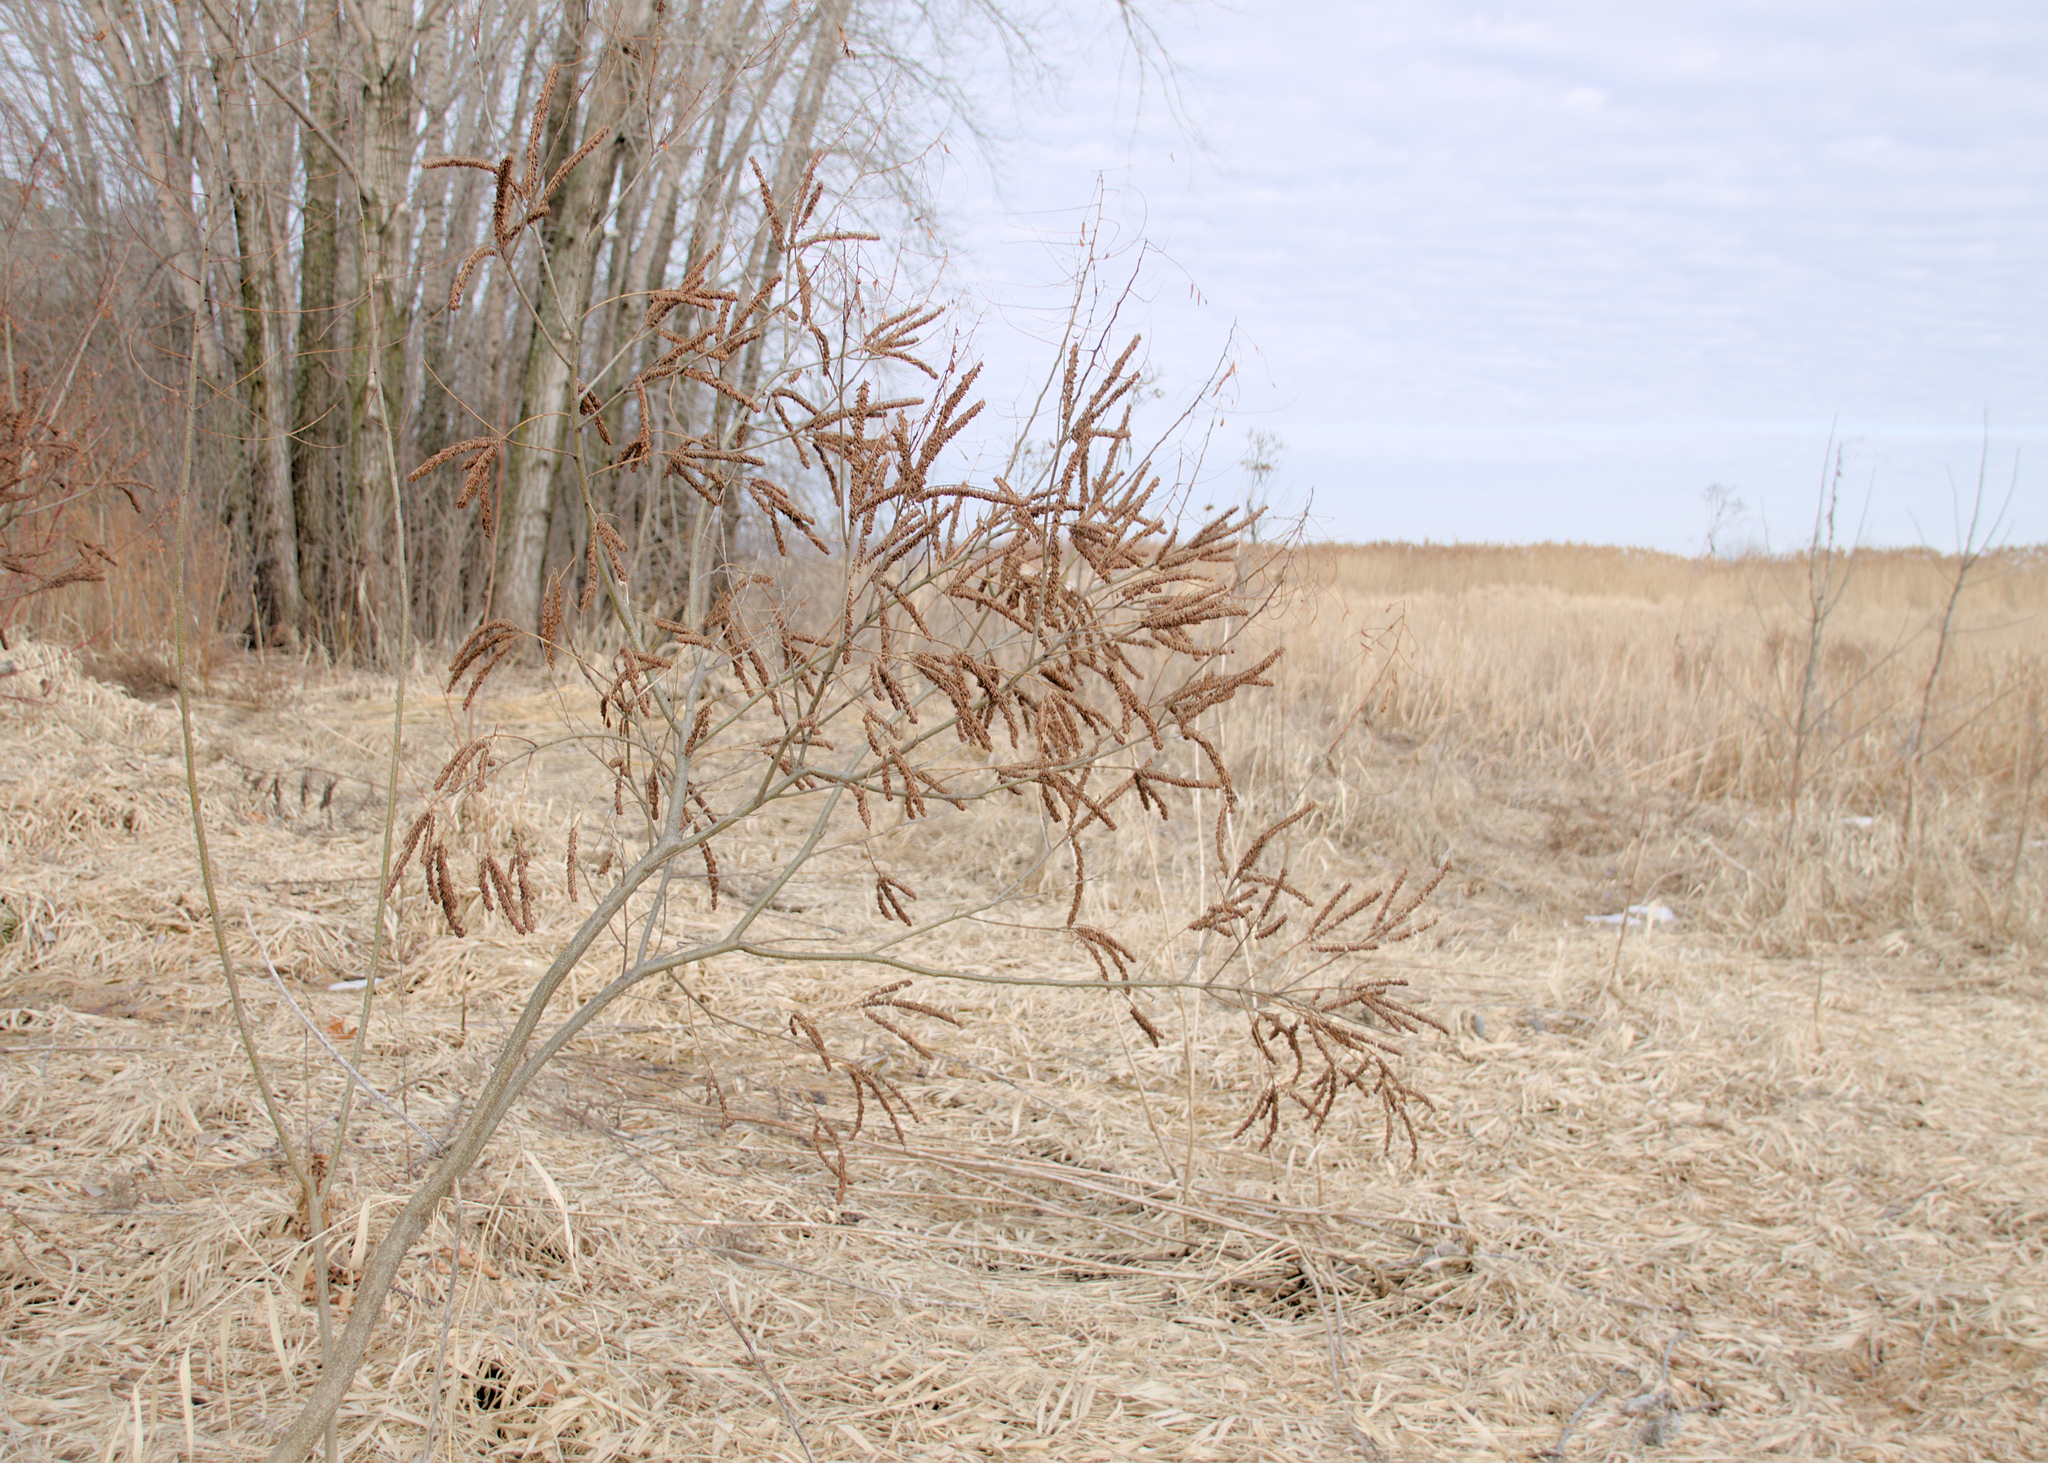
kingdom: Plantae
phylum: Tracheophyta
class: Magnoliopsida
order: Fabales
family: Fabaceae
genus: Amorpha
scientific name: Amorpha fruticosa
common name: False indigo
